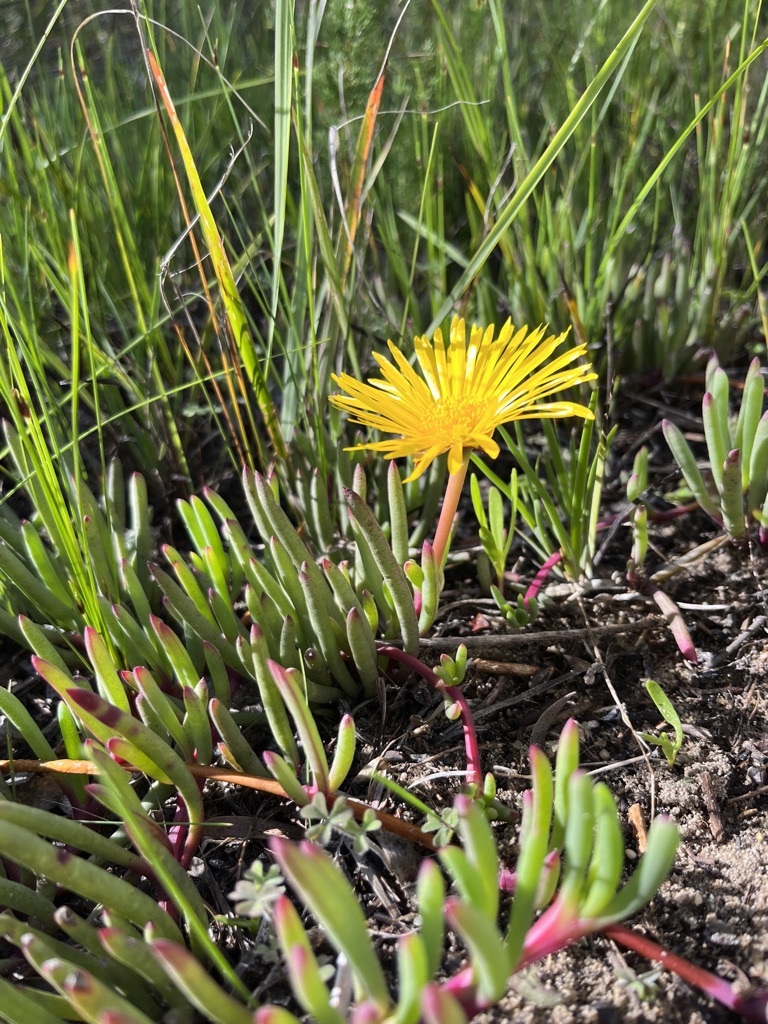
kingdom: Plantae
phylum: Tracheophyta
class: Magnoliopsida
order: Caryophyllales
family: Aizoaceae
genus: Jordaaniella
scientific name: Jordaaniella dubia
